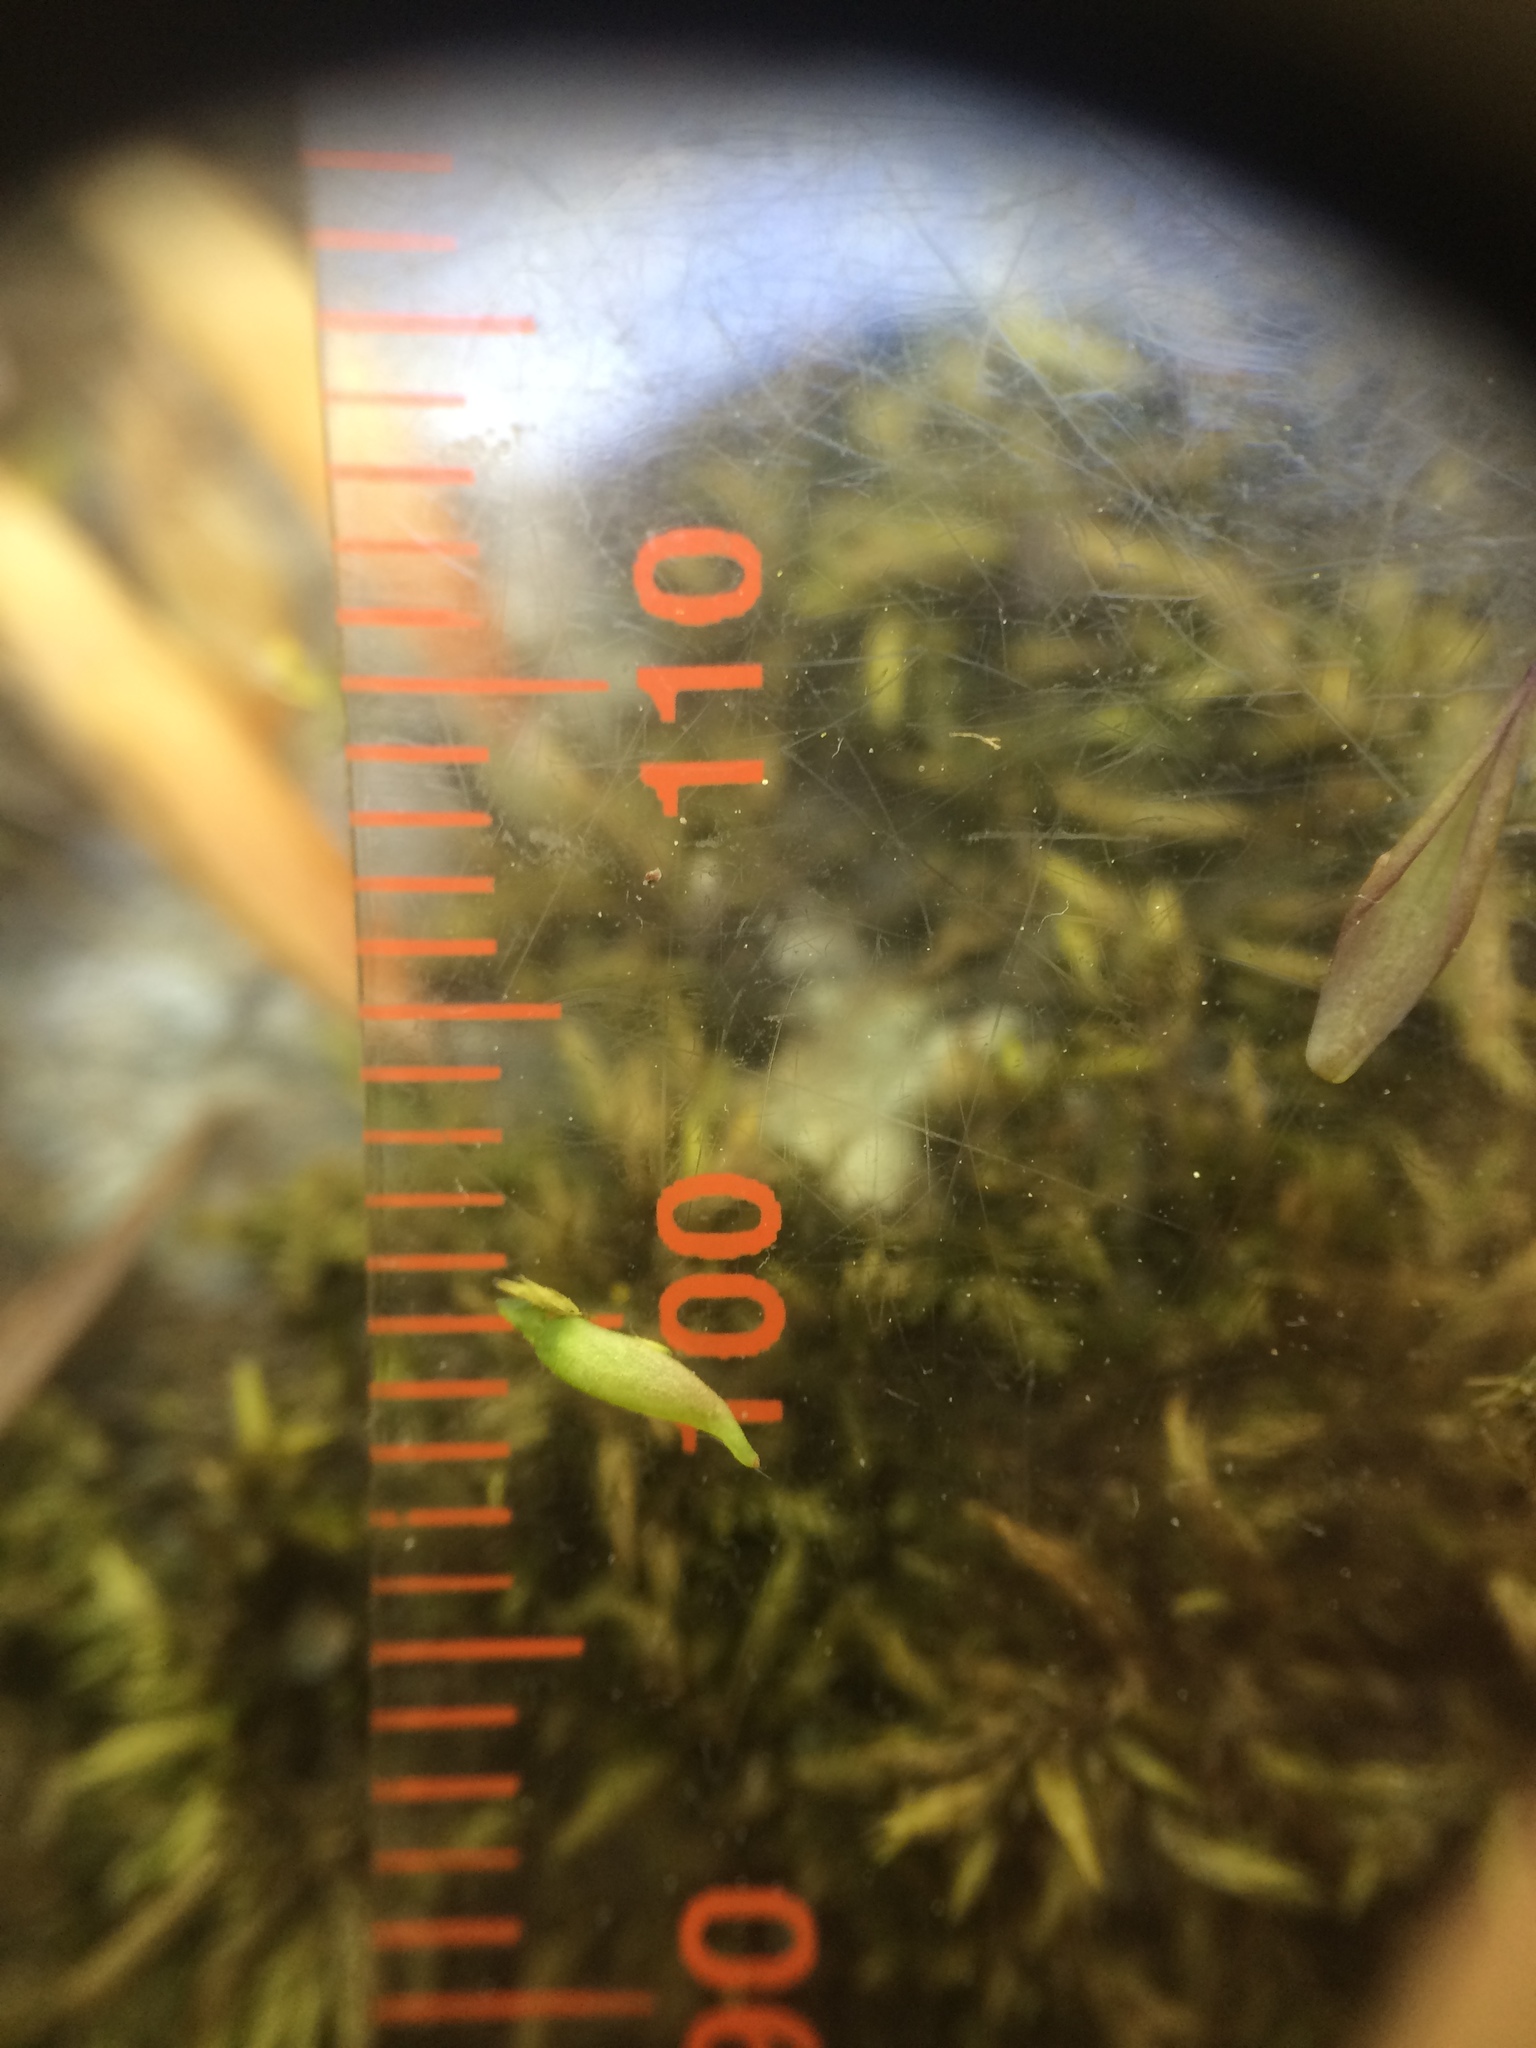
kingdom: Plantae
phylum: Tracheophyta
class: Magnoliopsida
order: Ranunculales
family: Berberidaceae
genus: Caulophyllum
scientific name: Caulophyllum giganteum
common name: Blue cohosh
